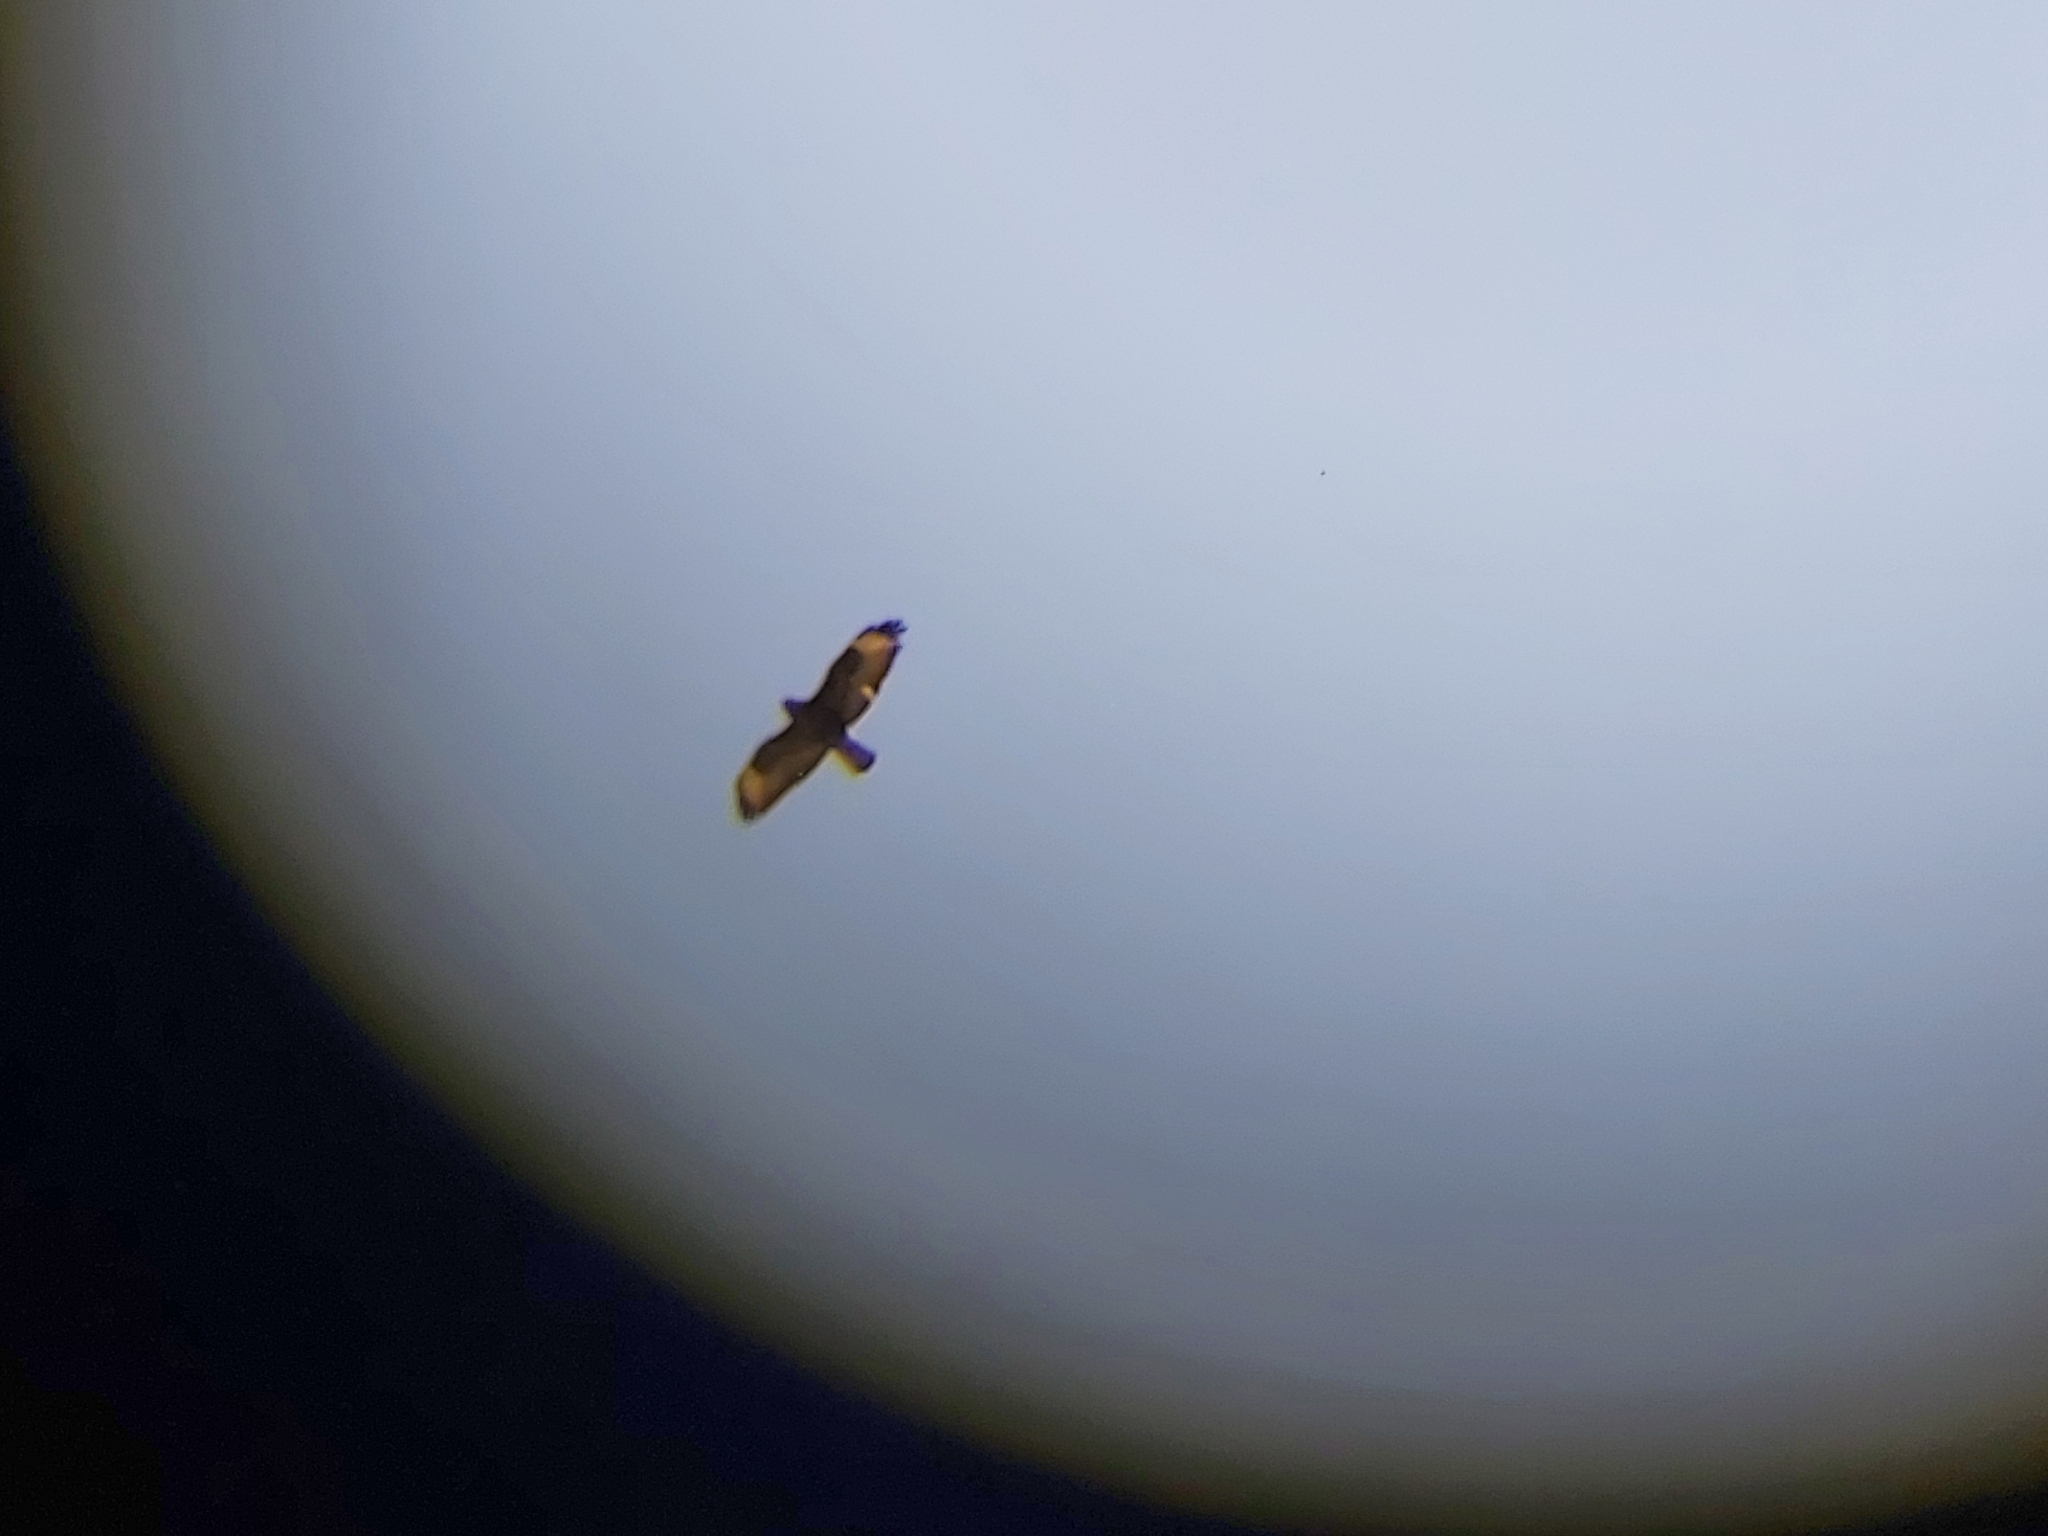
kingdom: Animalia
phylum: Chordata
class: Aves
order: Accipitriformes
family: Accipitridae
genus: Buteo
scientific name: Buteo buteo
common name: Common buzzard
